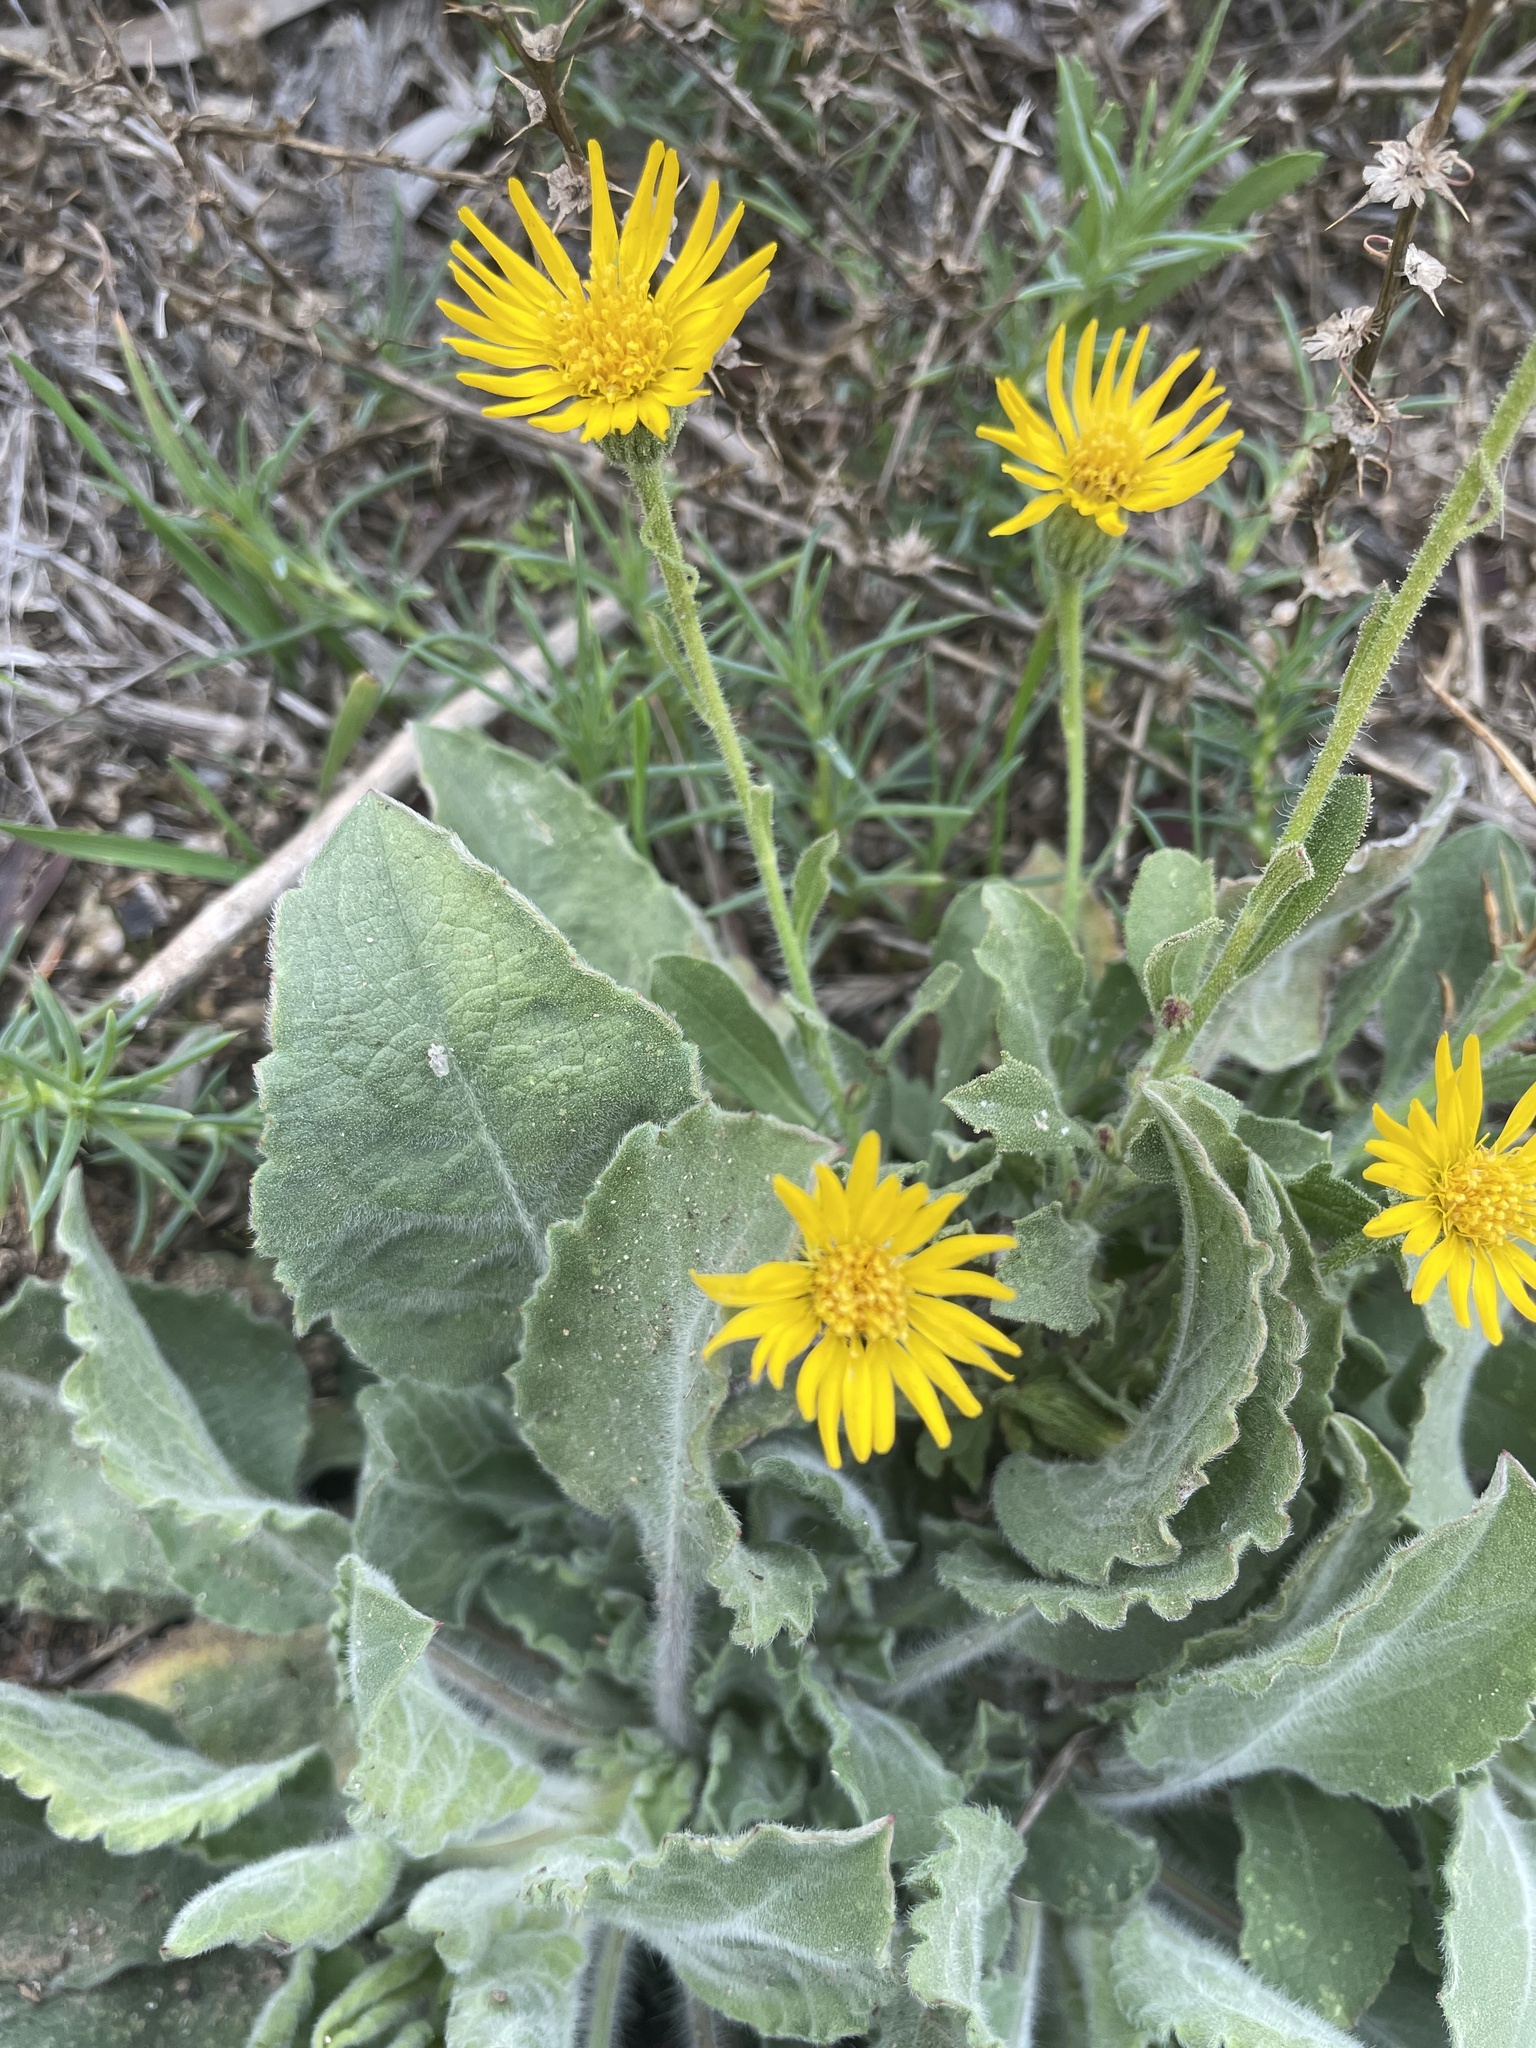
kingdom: Plantae
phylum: Tracheophyta
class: Magnoliopsida
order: Asterales
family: Asteraceae
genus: Heterotheca
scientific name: Heterotheca grandiflora
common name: Telegraphweed
